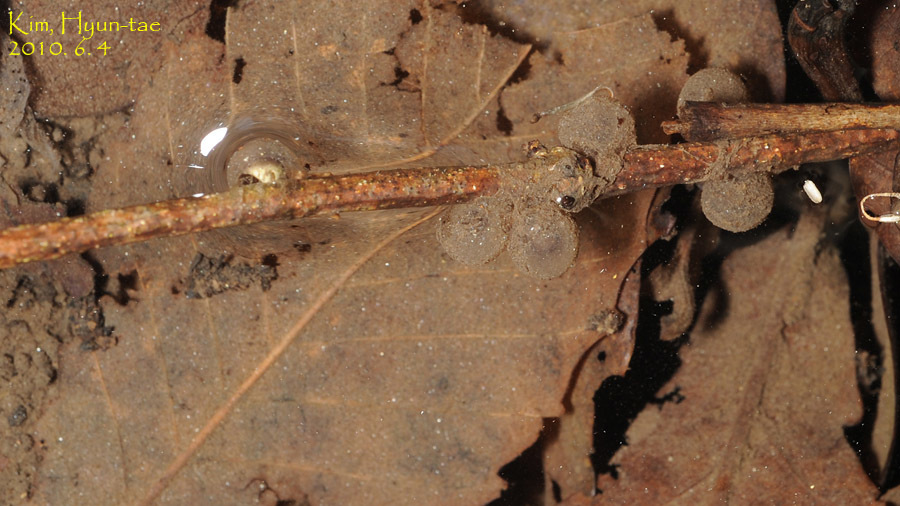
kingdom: Animalia
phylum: Chordata
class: Amphibia
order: Anura
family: Bombinatoridae
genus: Bombina
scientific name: Bombina orientalis
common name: Oriental firebelly toad
